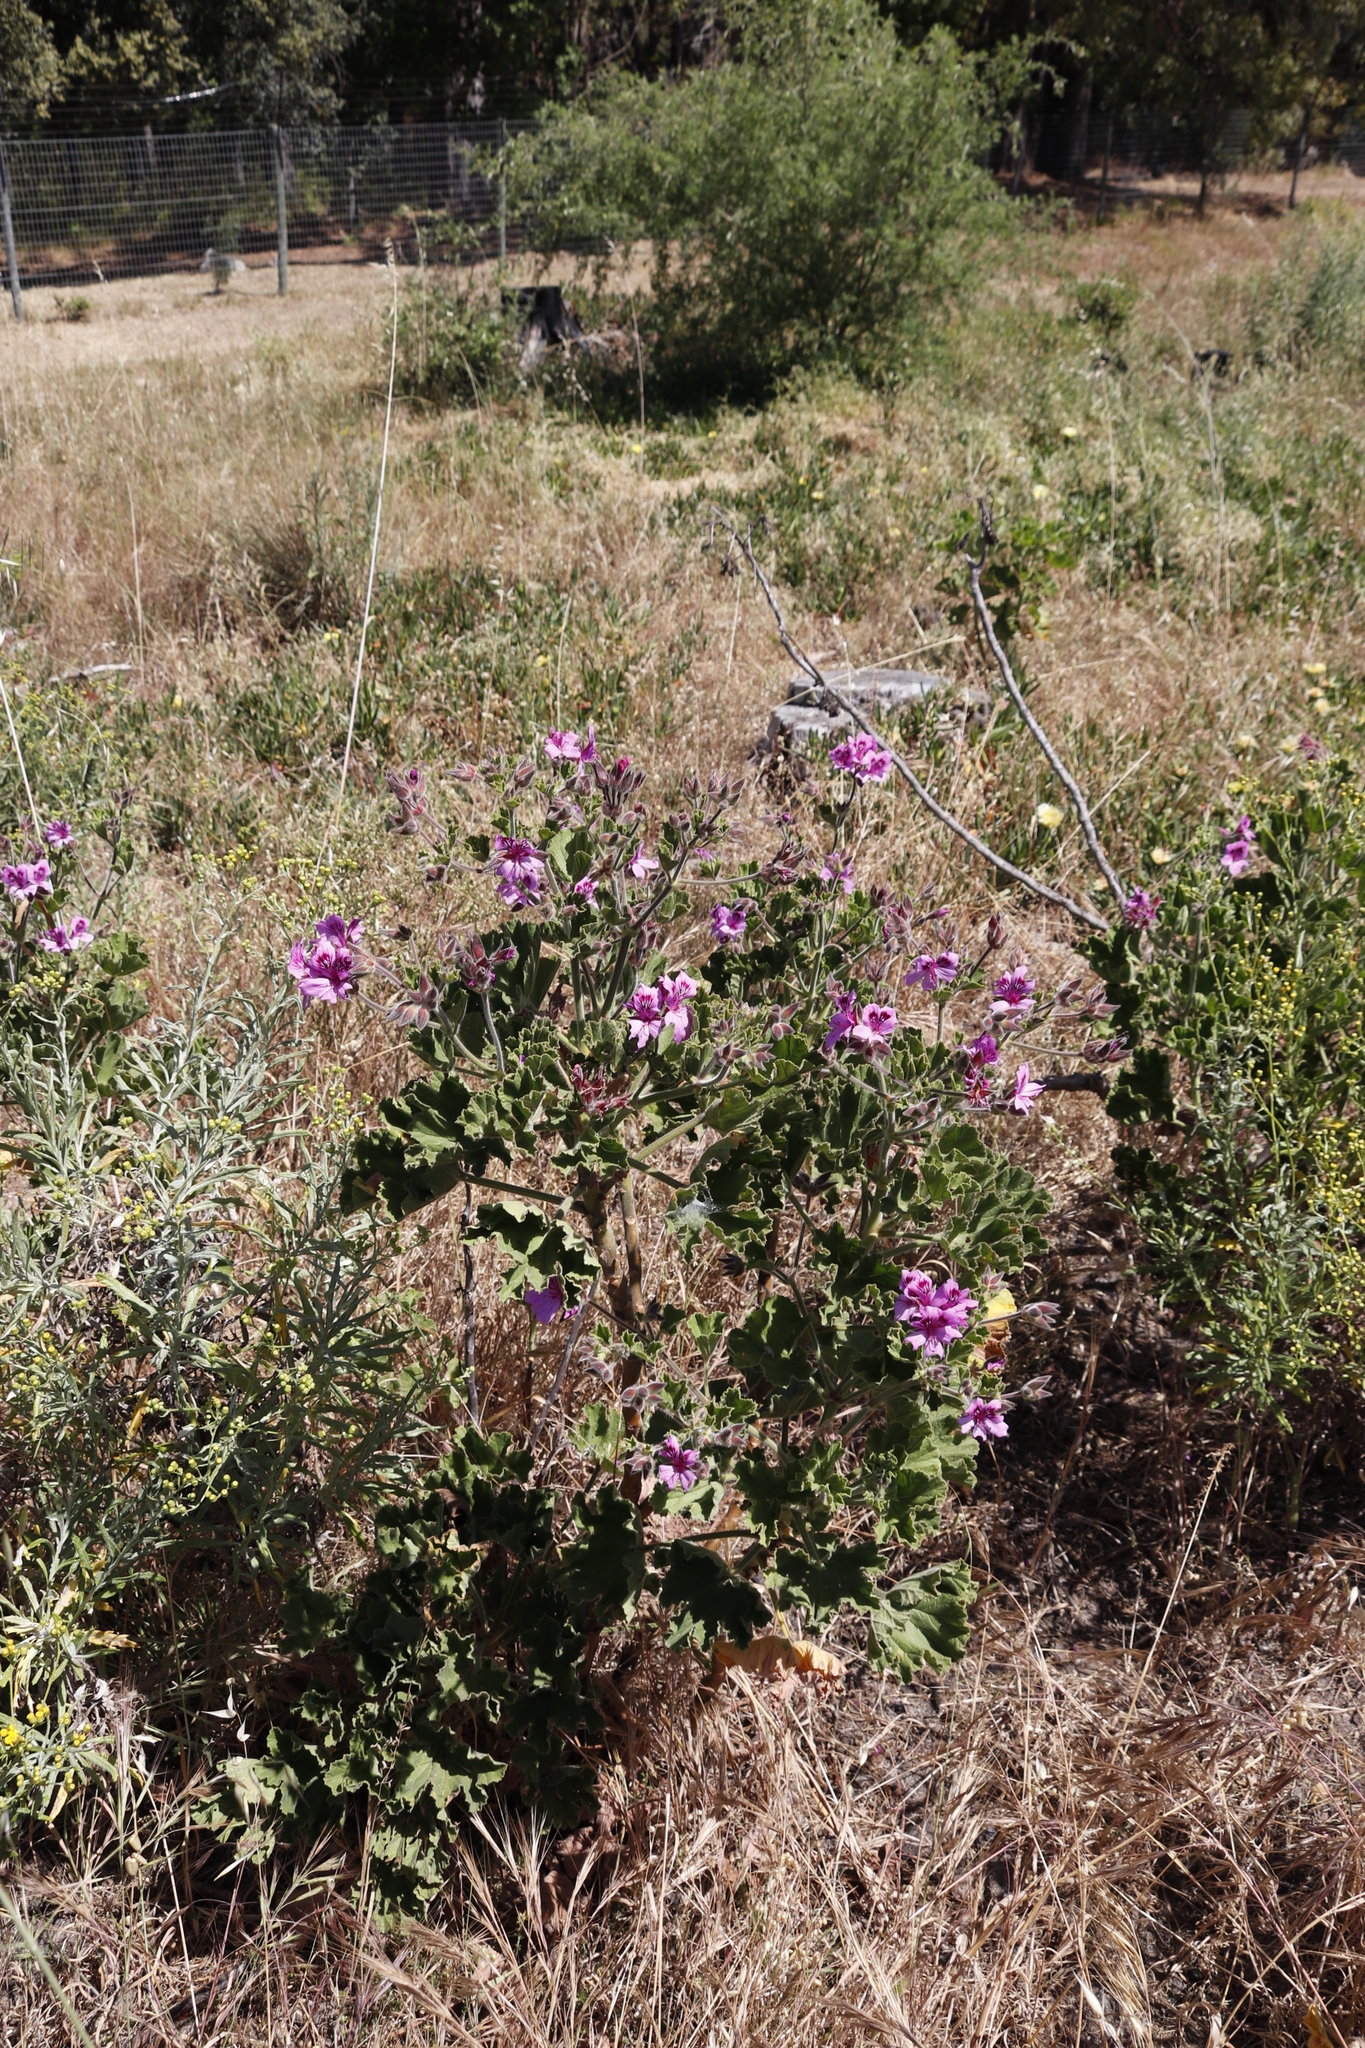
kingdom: Plantae
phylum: Tracheophyta
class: Magnoliopsida
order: Geraniales
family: Geraniaceae
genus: Pelargonium
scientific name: Pelargonium cucullatum
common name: Tree pelargonium
